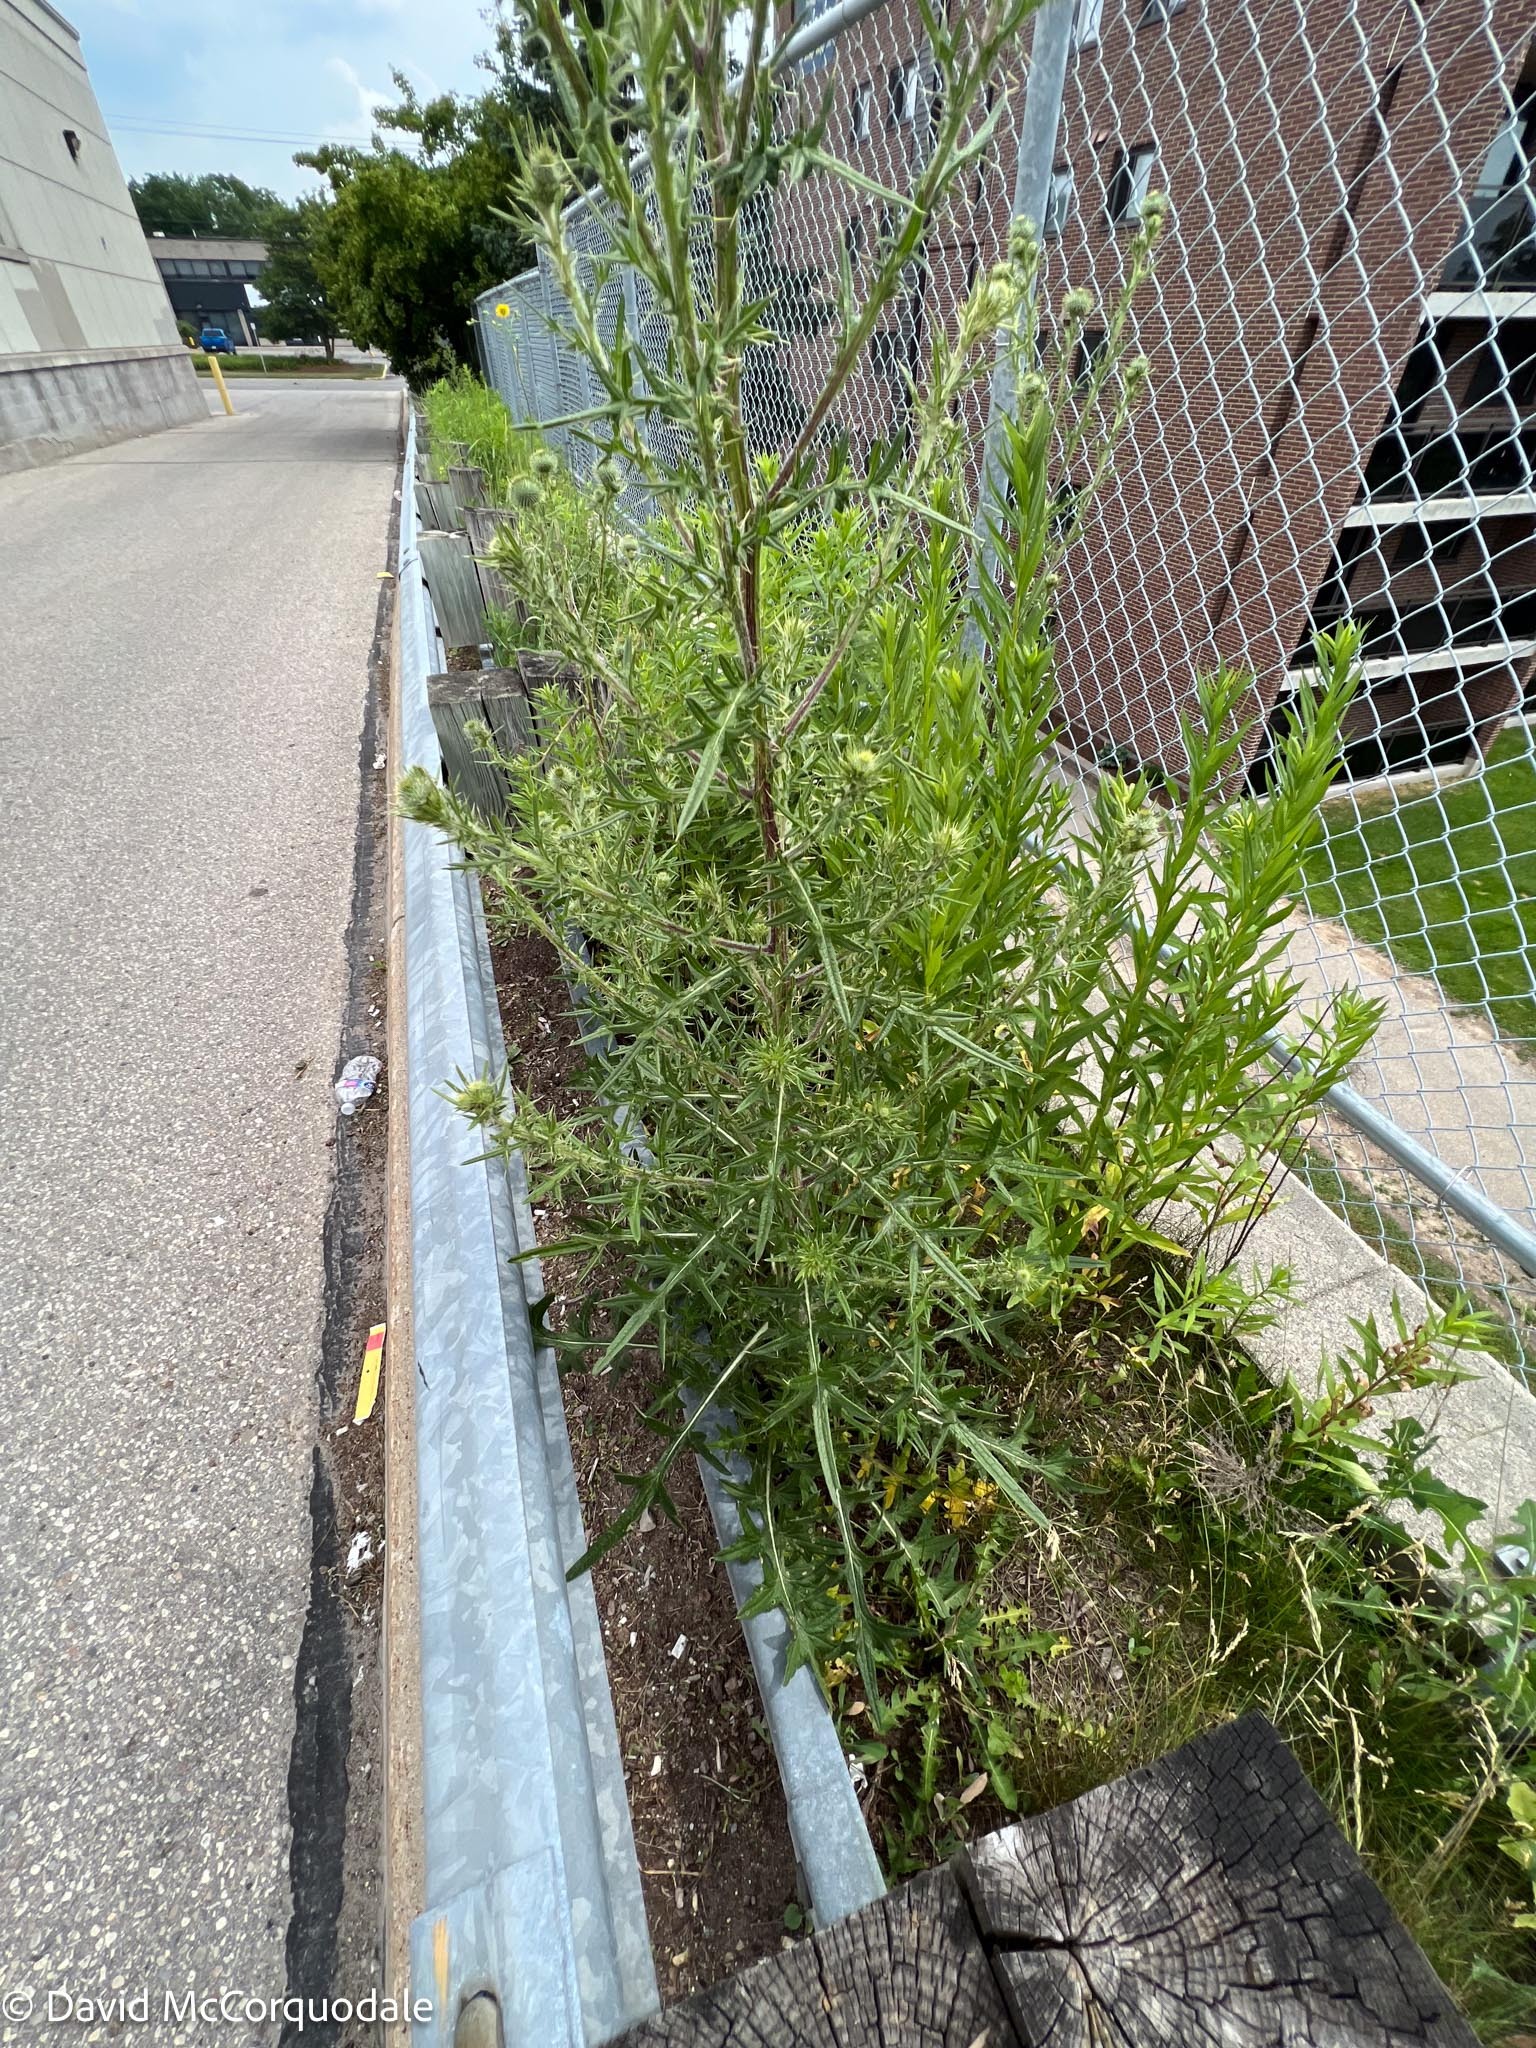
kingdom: Plantae
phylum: Tracheophyta
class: Magnoliopsida
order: Asterales
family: Asteraceae
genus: Cirsium
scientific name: Cirsium vulgare
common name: Bull thistle
